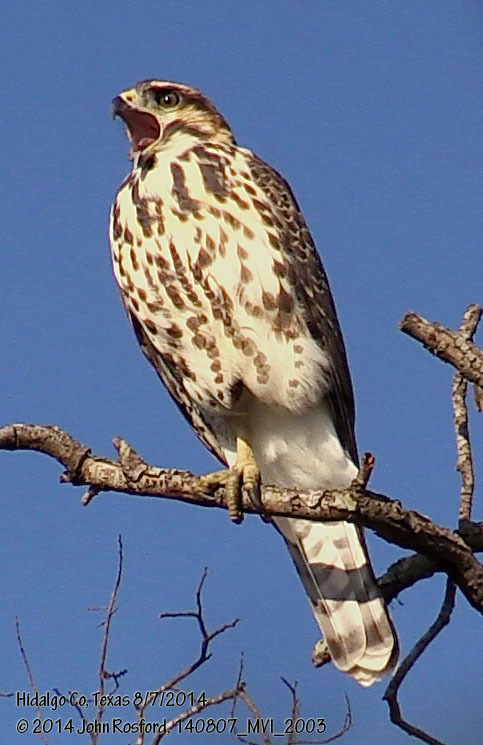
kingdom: Animalia
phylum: Chordata
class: Aves
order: Accipitriformes
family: Accipitridae
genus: Buteo
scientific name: Buteo nitidus
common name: Grey-lined hawk
